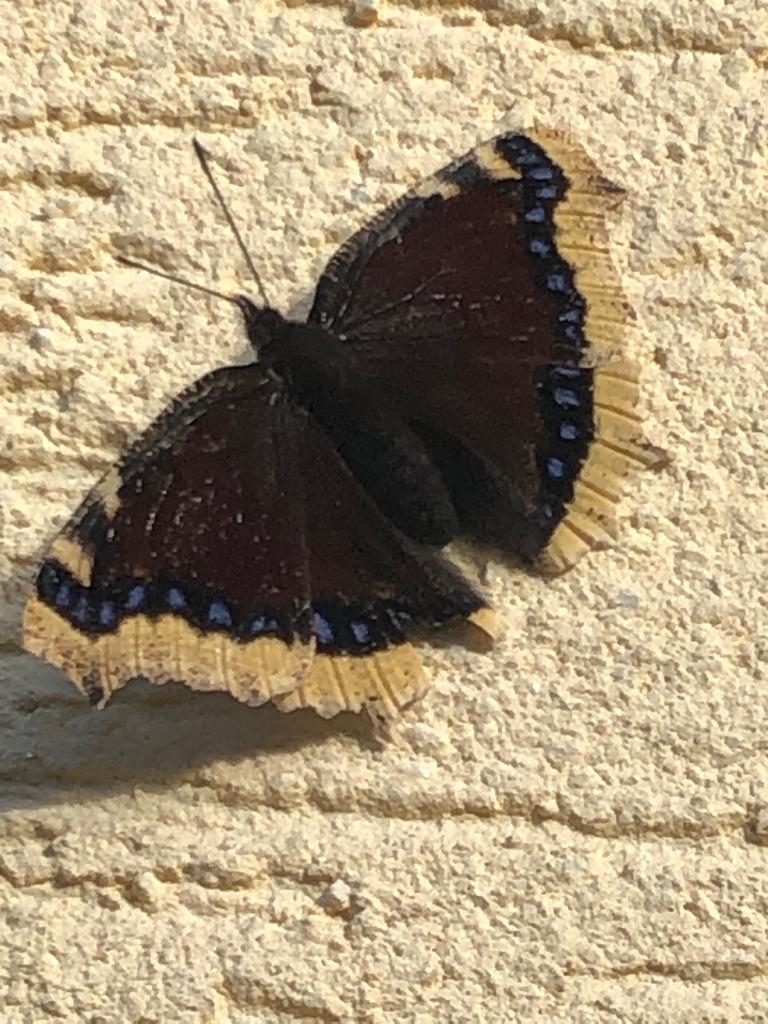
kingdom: Animalia
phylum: Arthropoda
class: Insecta
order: Lepidoptera
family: Nymphalidae
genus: Nymphalis
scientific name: Nymphalis antiopa
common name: Camberwell beauty
